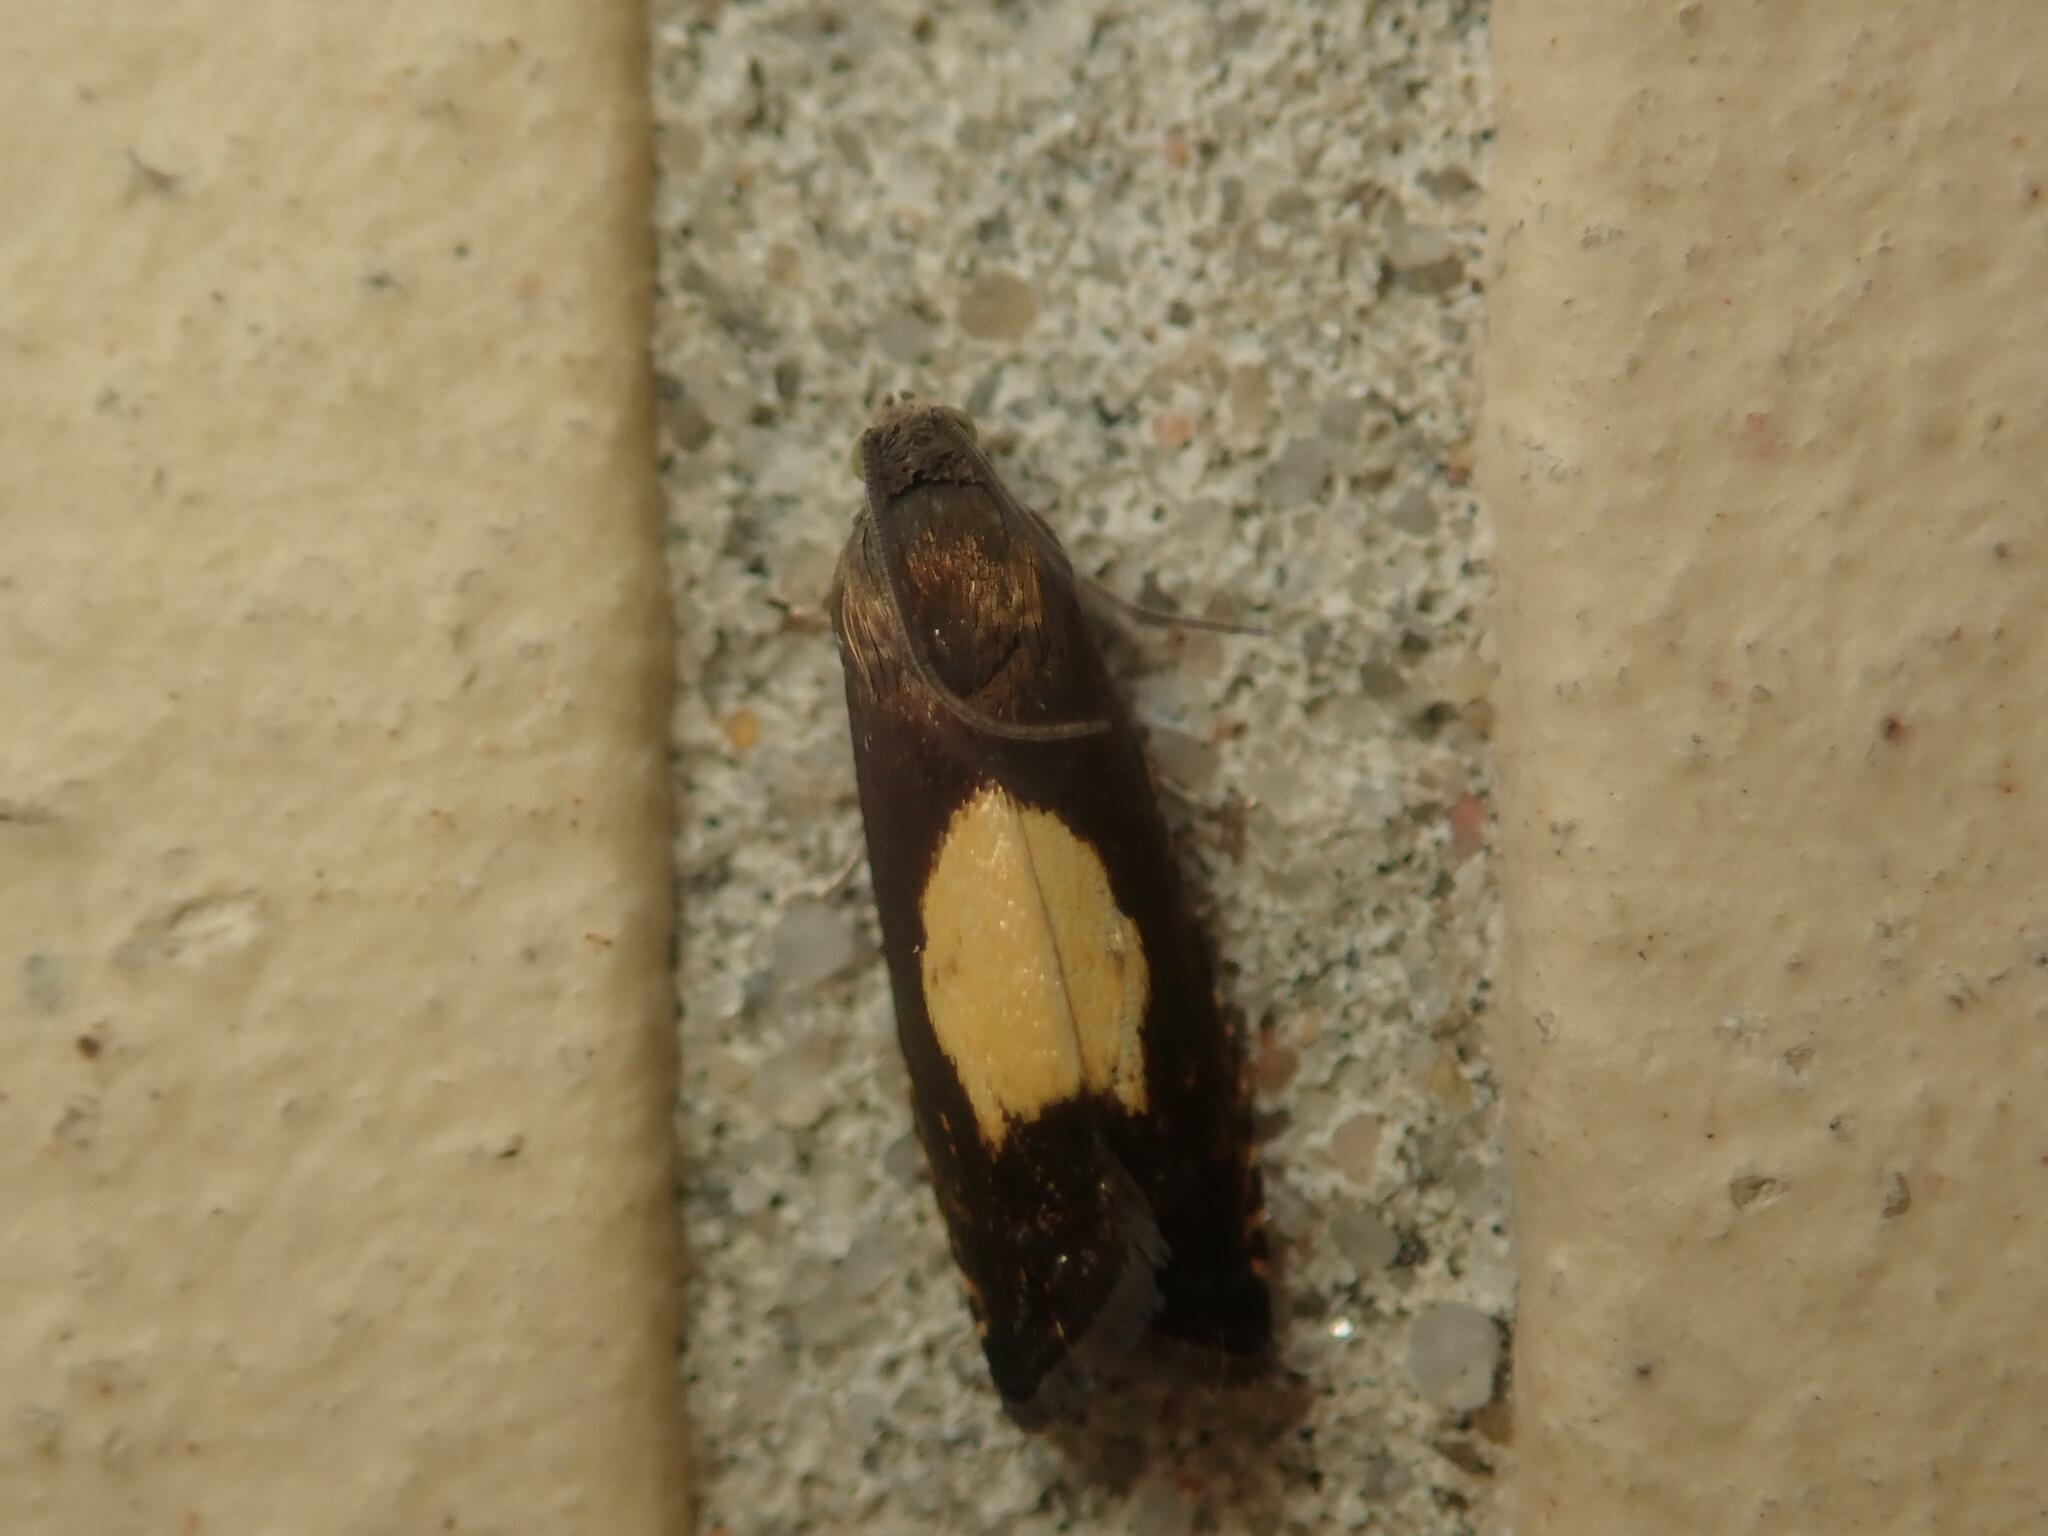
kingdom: Animalia
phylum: Arthropoda
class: Insecta
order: Lepidoptera
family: Tortricidae
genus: Pammene
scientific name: Pammene regiana
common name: Regal piercer
